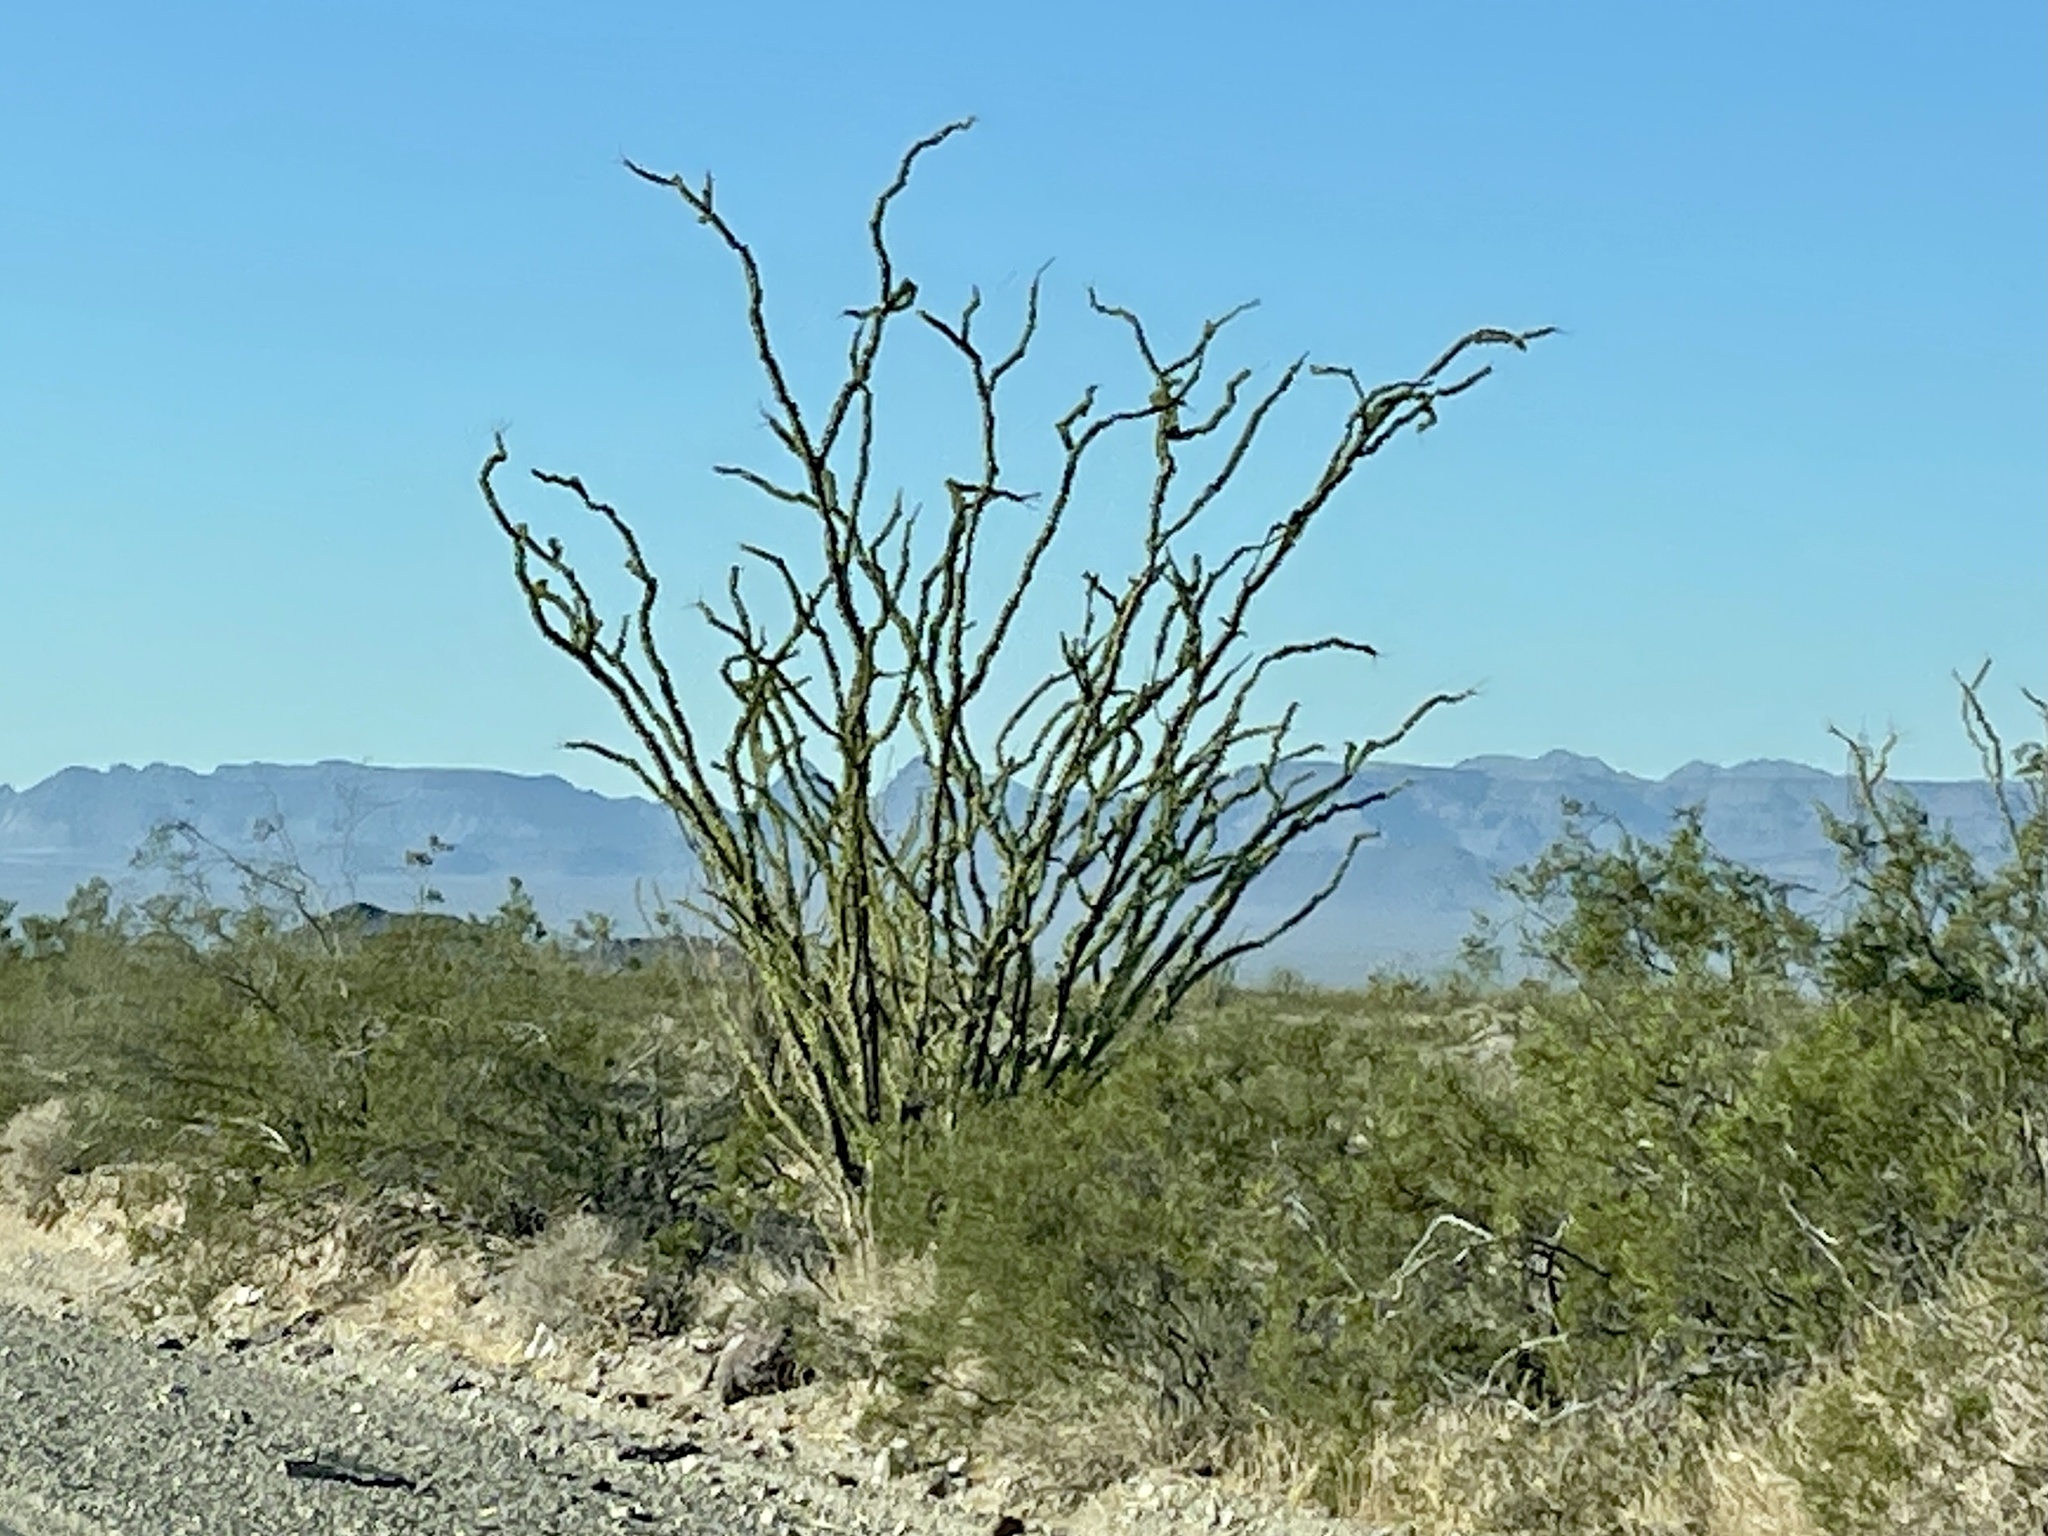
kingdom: Plantae
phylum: Tracheophyta
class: Magnoliopsida
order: Ericales
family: Fouquieriaceae
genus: Fouquieria
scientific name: Fouquieria splendens
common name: Vine-cactus
